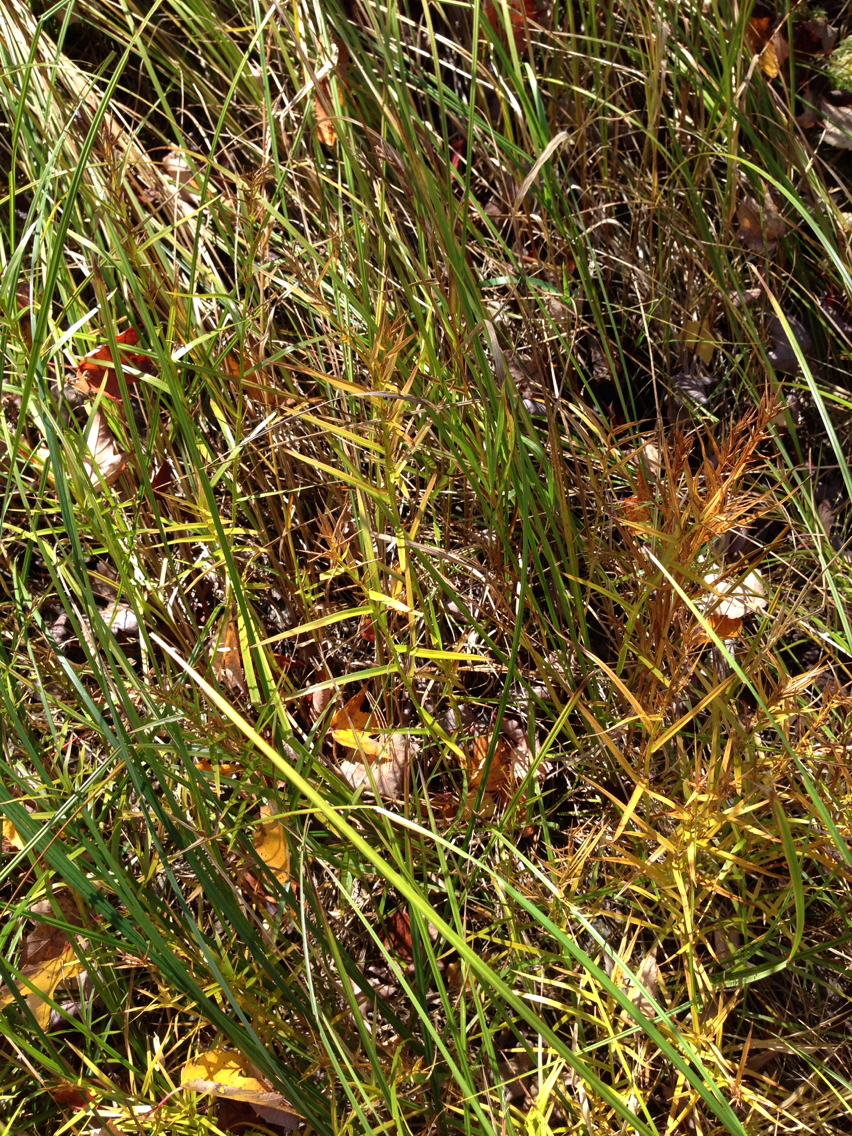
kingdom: Plantae
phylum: Tracheophyta
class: Liliopsida
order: Poales
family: Cyperaceae
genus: Dulichium
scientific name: Dulichium arundinaceum
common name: Three-way sedge
